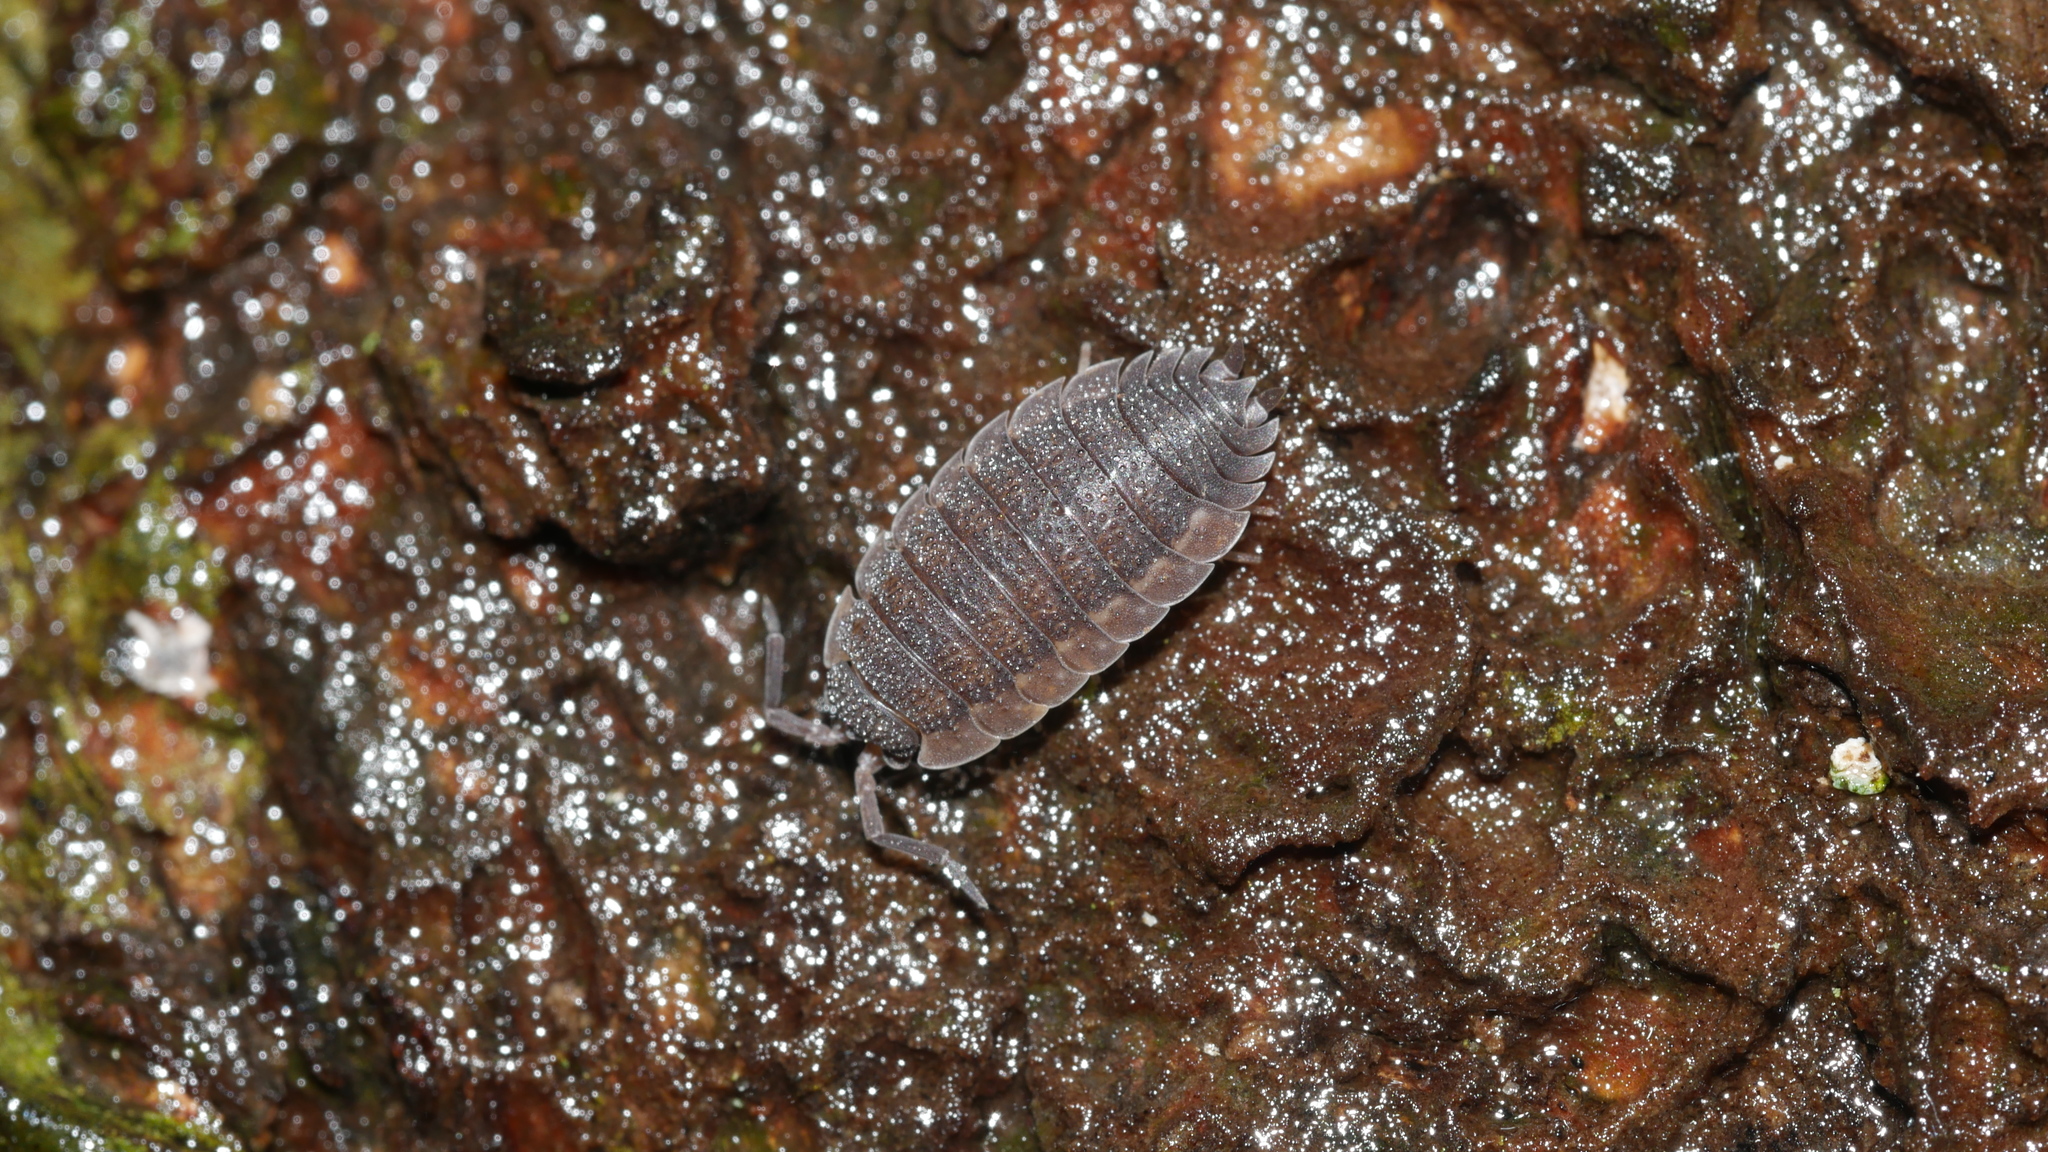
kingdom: Animalia
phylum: Arthropoda
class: Malacostraca
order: Isopoda
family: Porcellionidae
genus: Porcellio
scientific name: Porcellio scaber
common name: Common rough woodlouse
